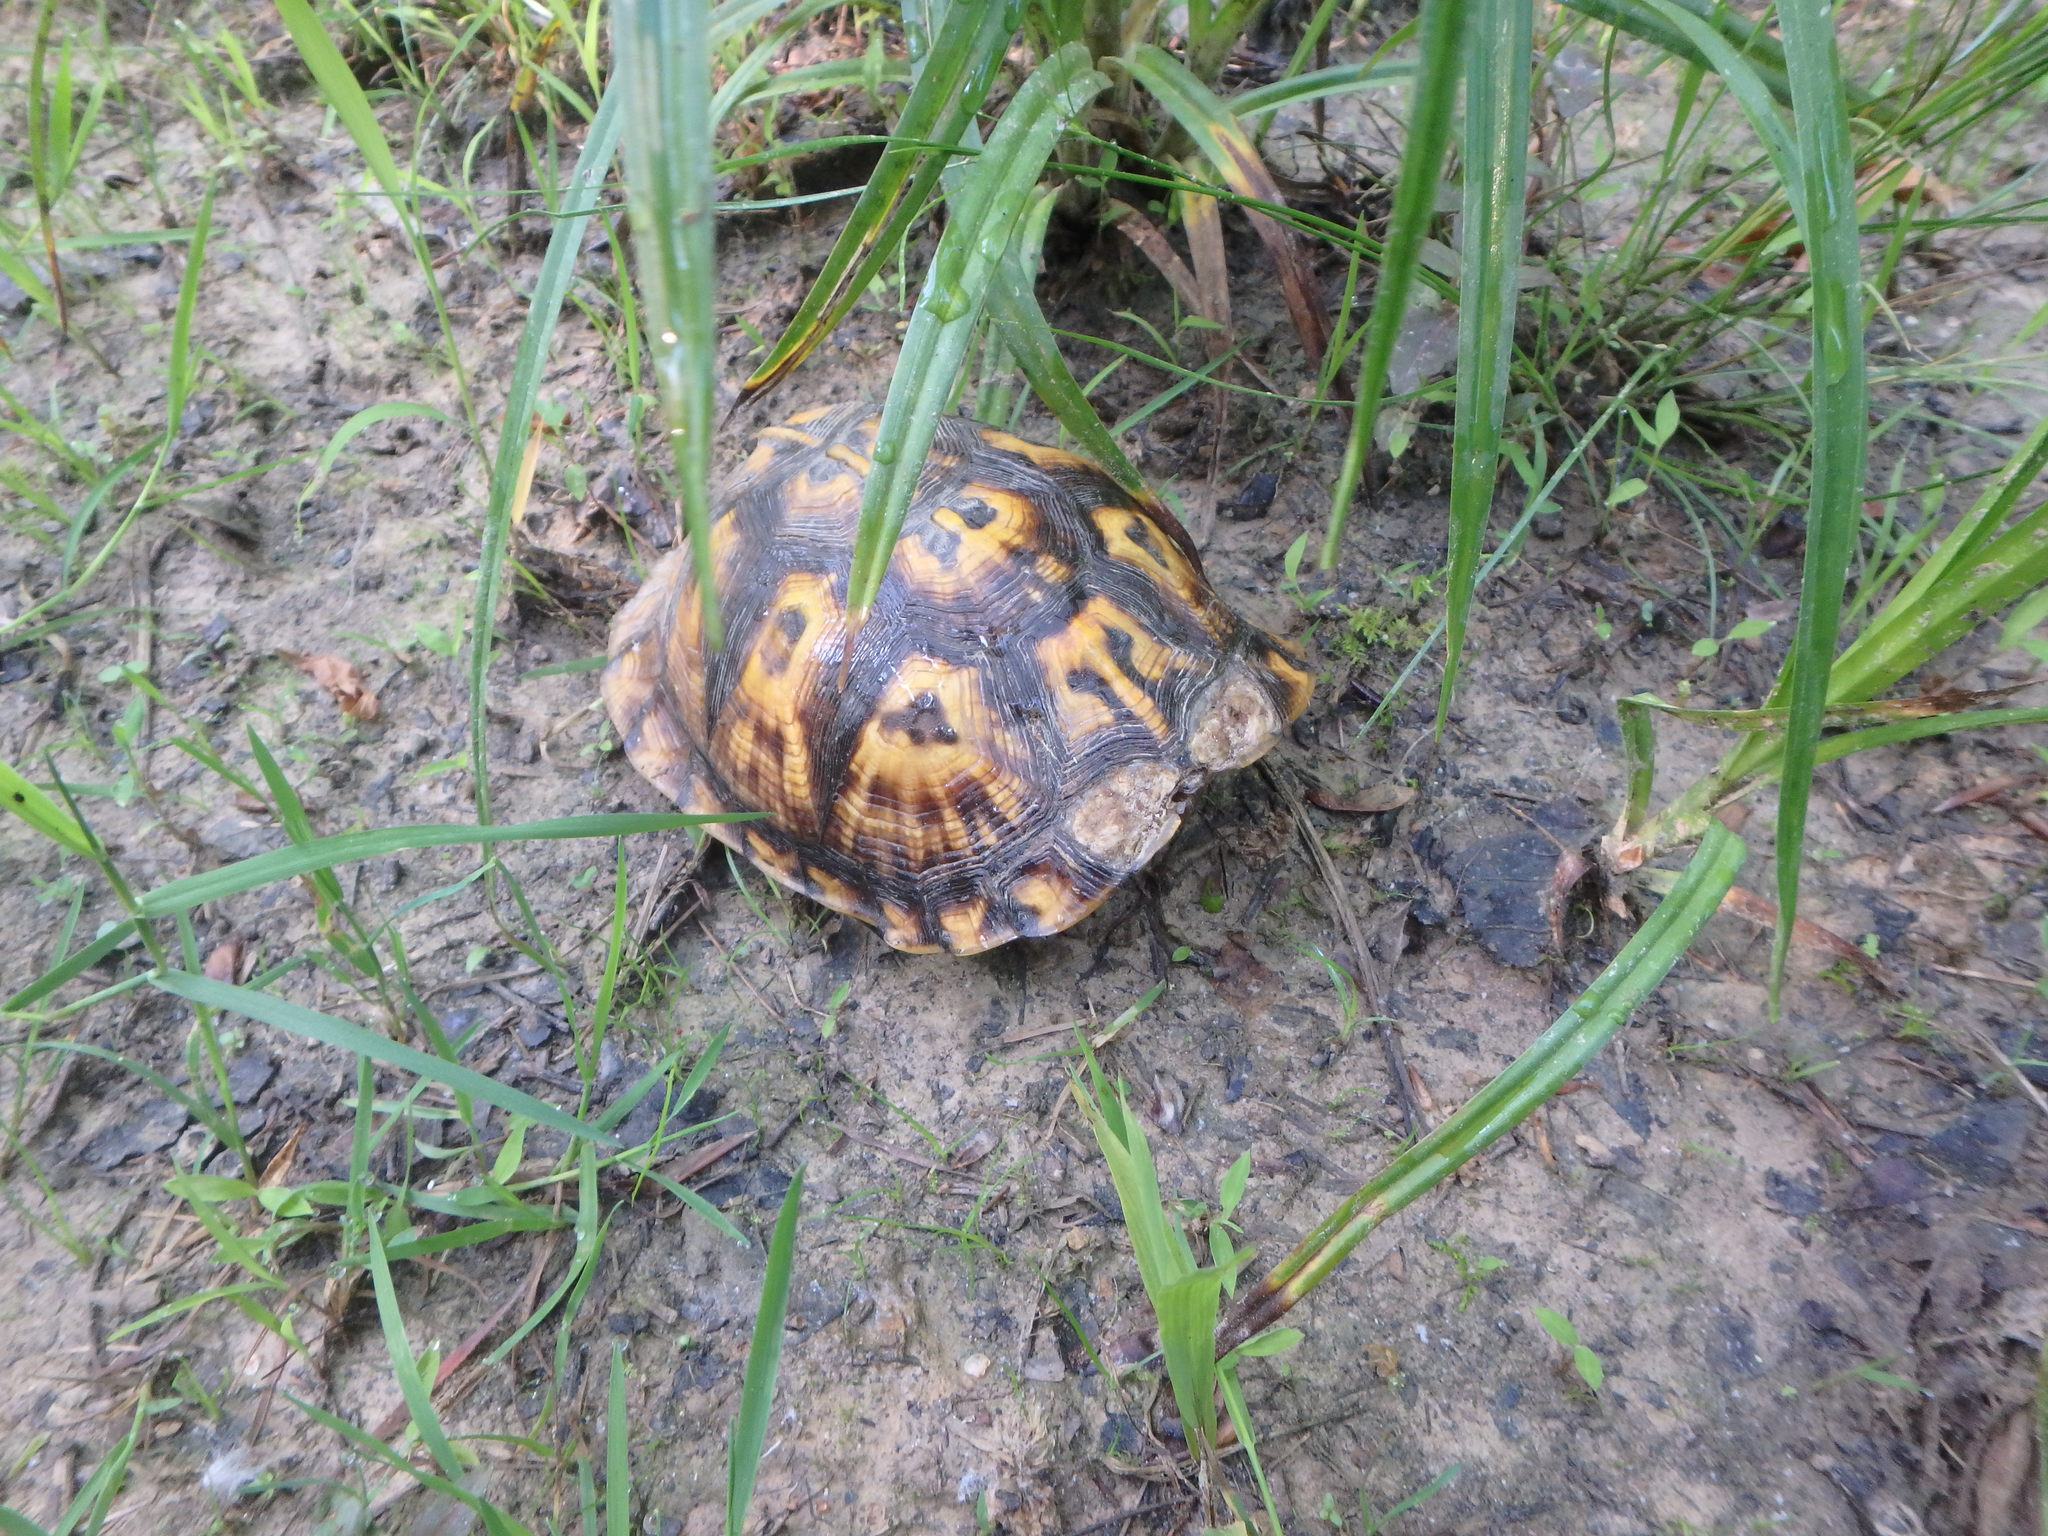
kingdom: Animalia
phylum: Chordata
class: Testudines
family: Emydidae
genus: Terrapene
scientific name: Terrapene carolina
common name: Common box turtle
